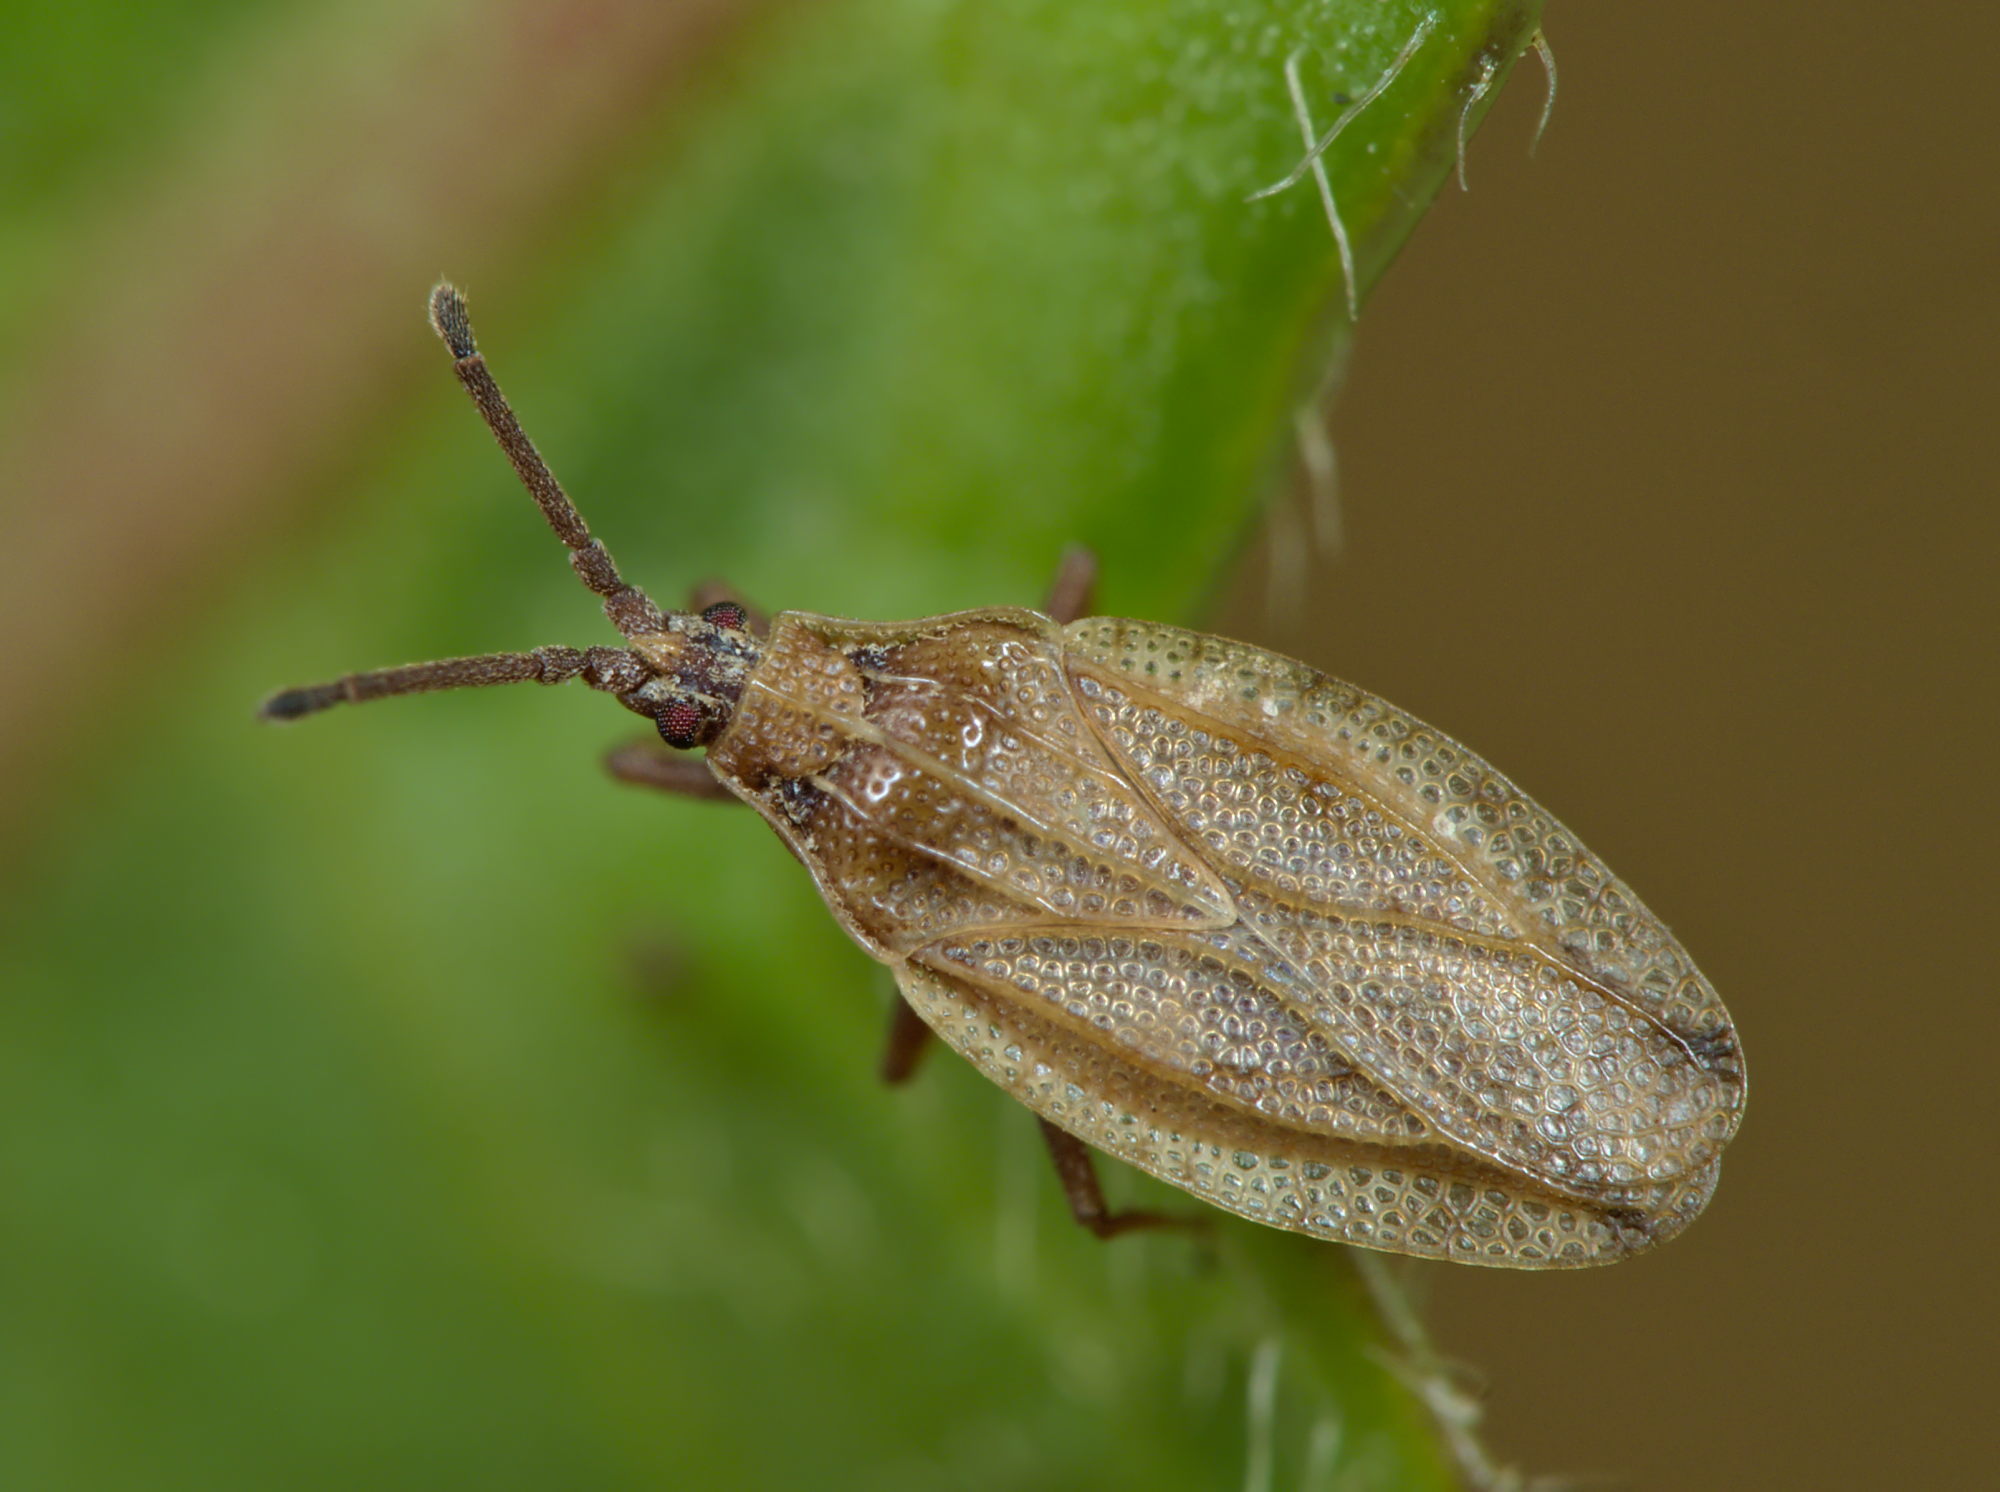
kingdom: Animalia
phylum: Arthropoda
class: Insecta
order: Hemiptera
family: Tingidae
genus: Catoplatus
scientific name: Catoplatus fabricii
